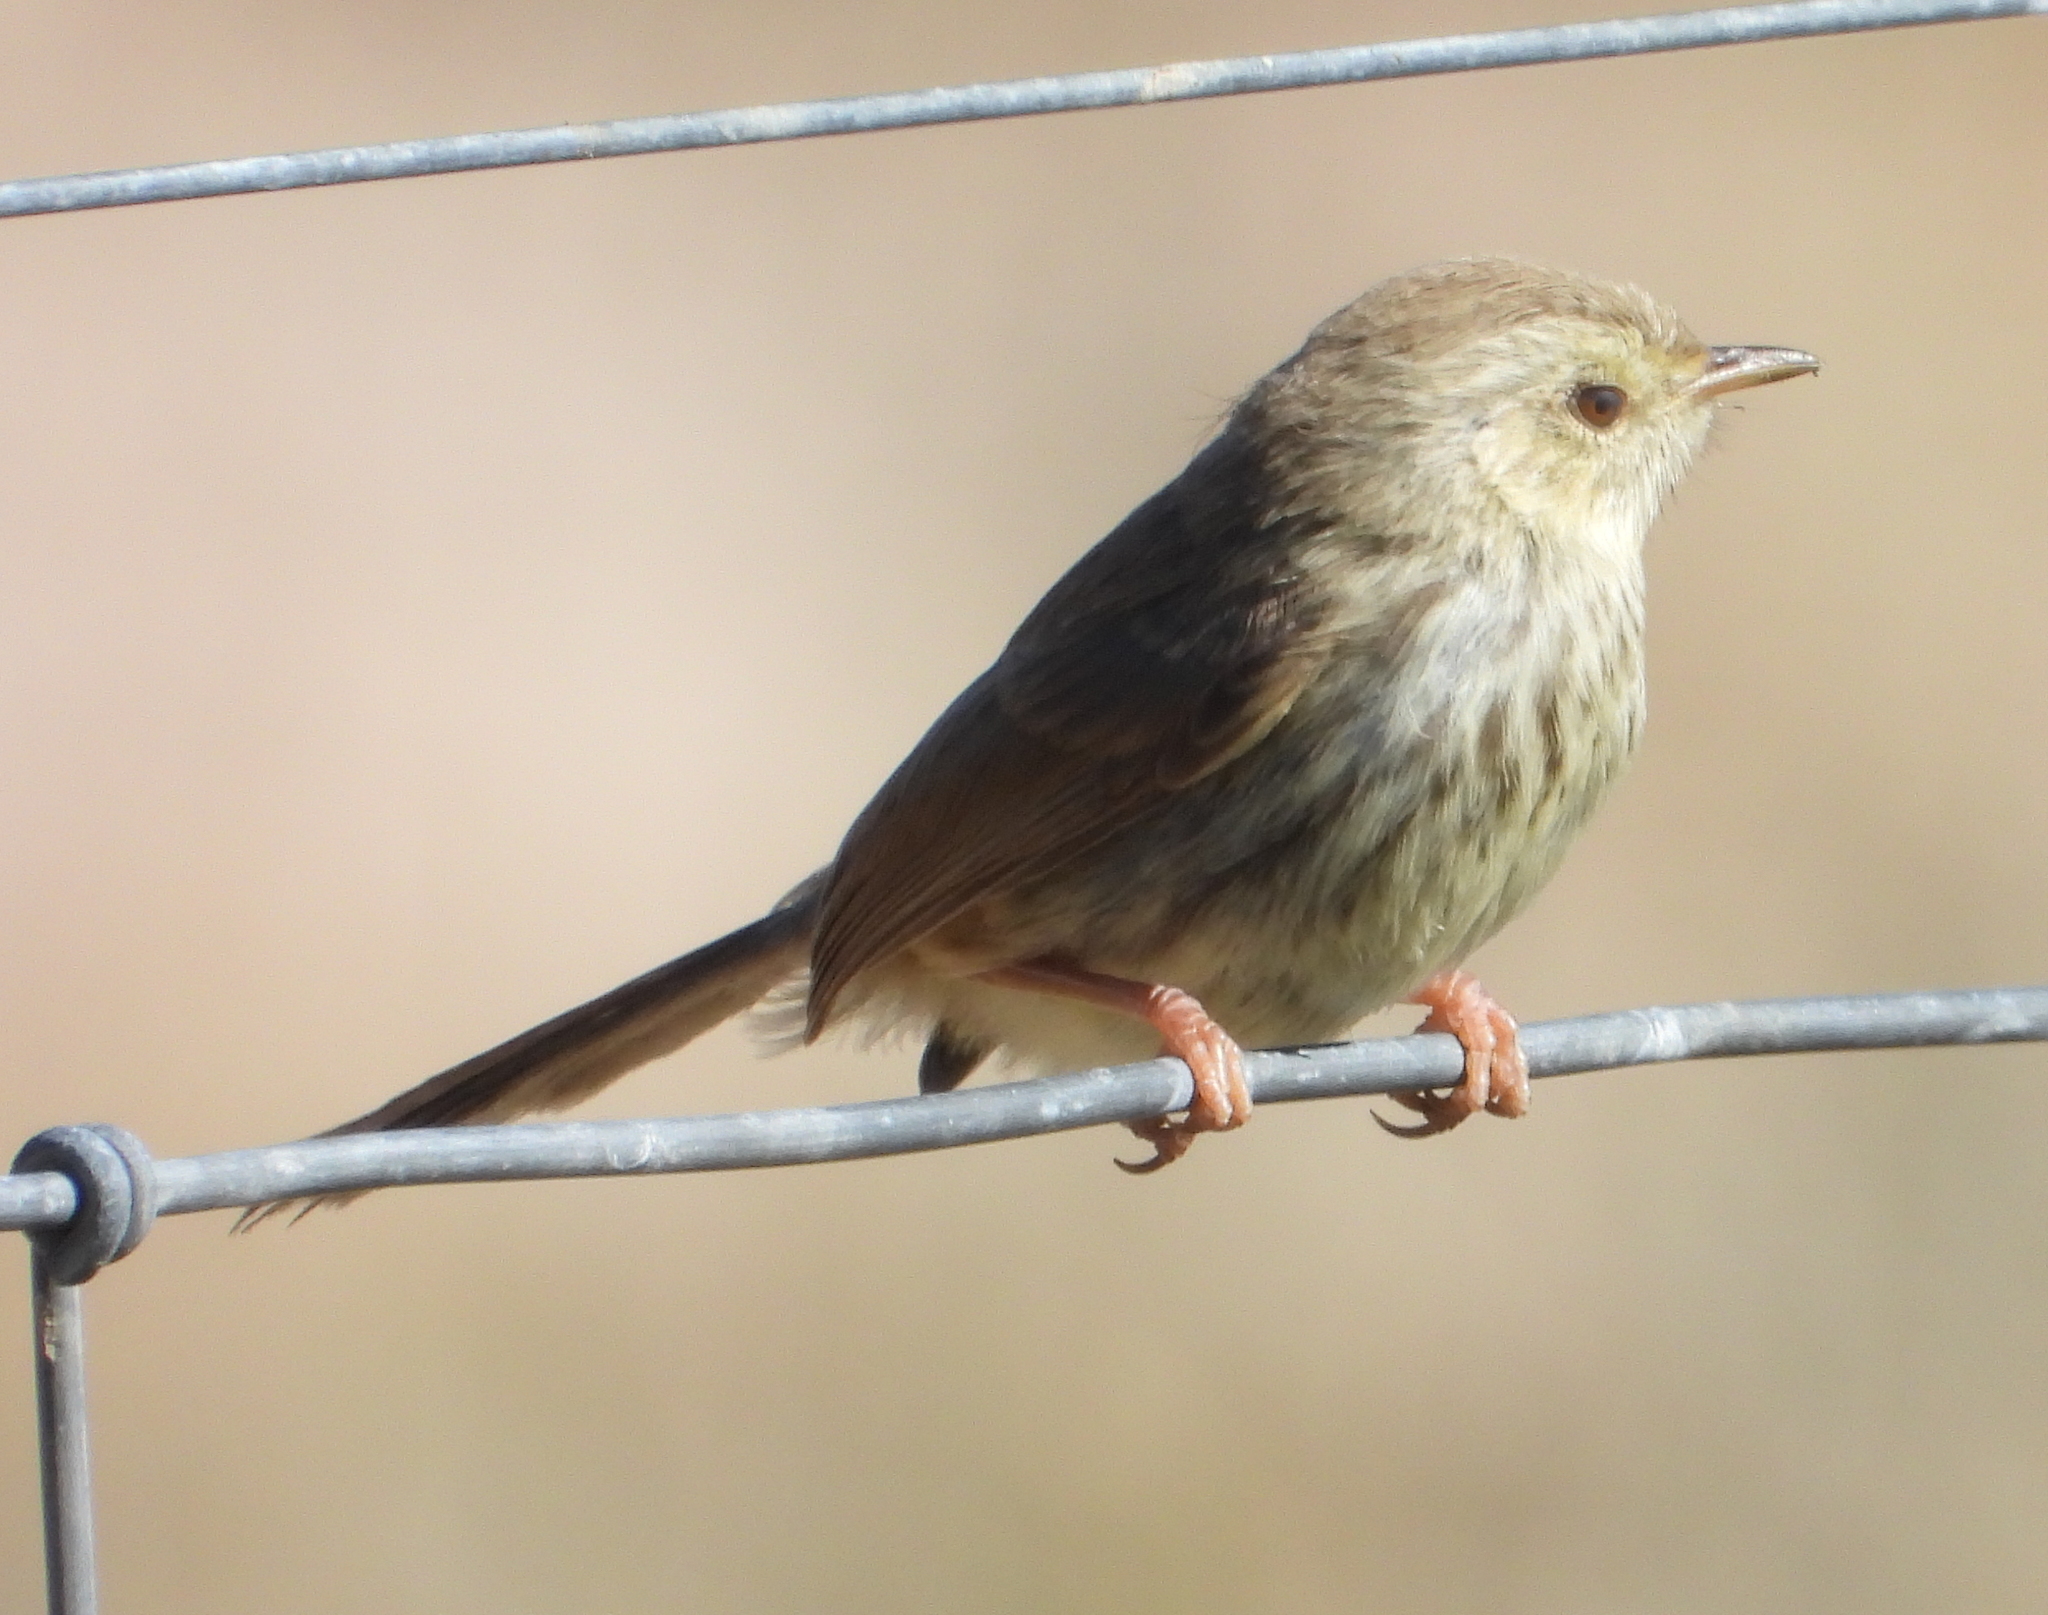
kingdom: Animalia
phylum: Chordata
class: Aves
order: Passeriformes
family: Cisticolidae
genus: Prinia
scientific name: Prinia maculosa
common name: Karoo prinia
